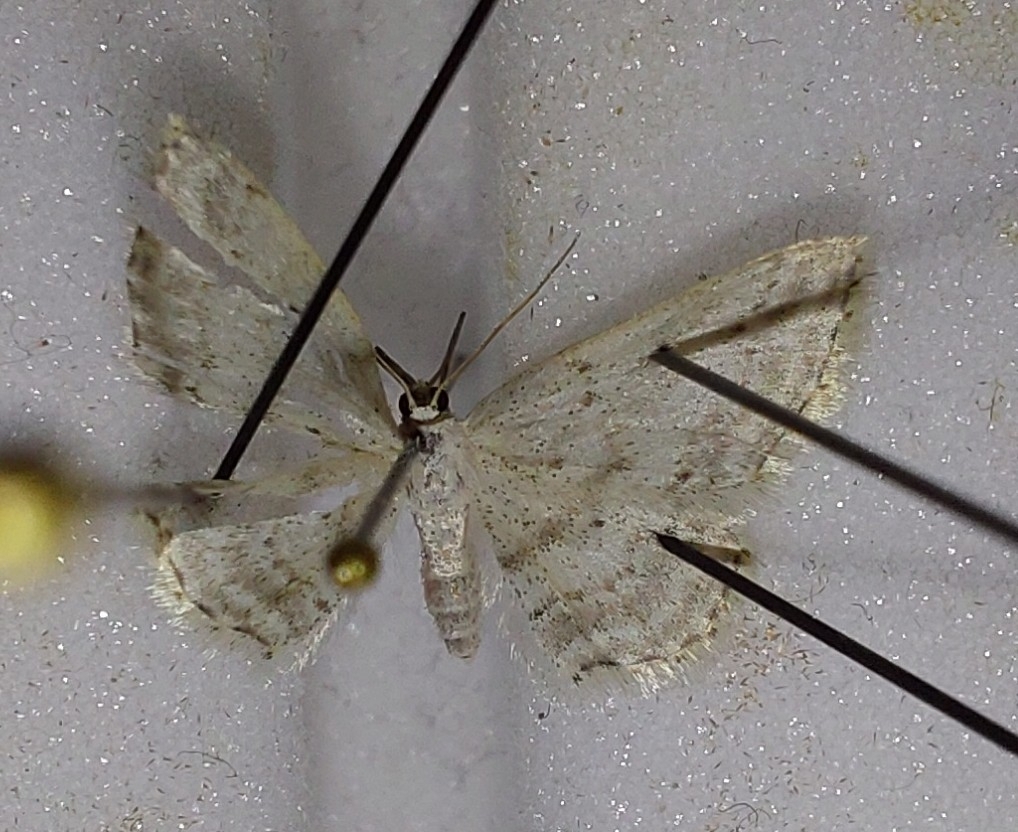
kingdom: Animalia
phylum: Arthropoda
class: Insecta
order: Lepidoptera
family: Geometridae
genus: Idaea
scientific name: Idaea seriata
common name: Small dusty wave
